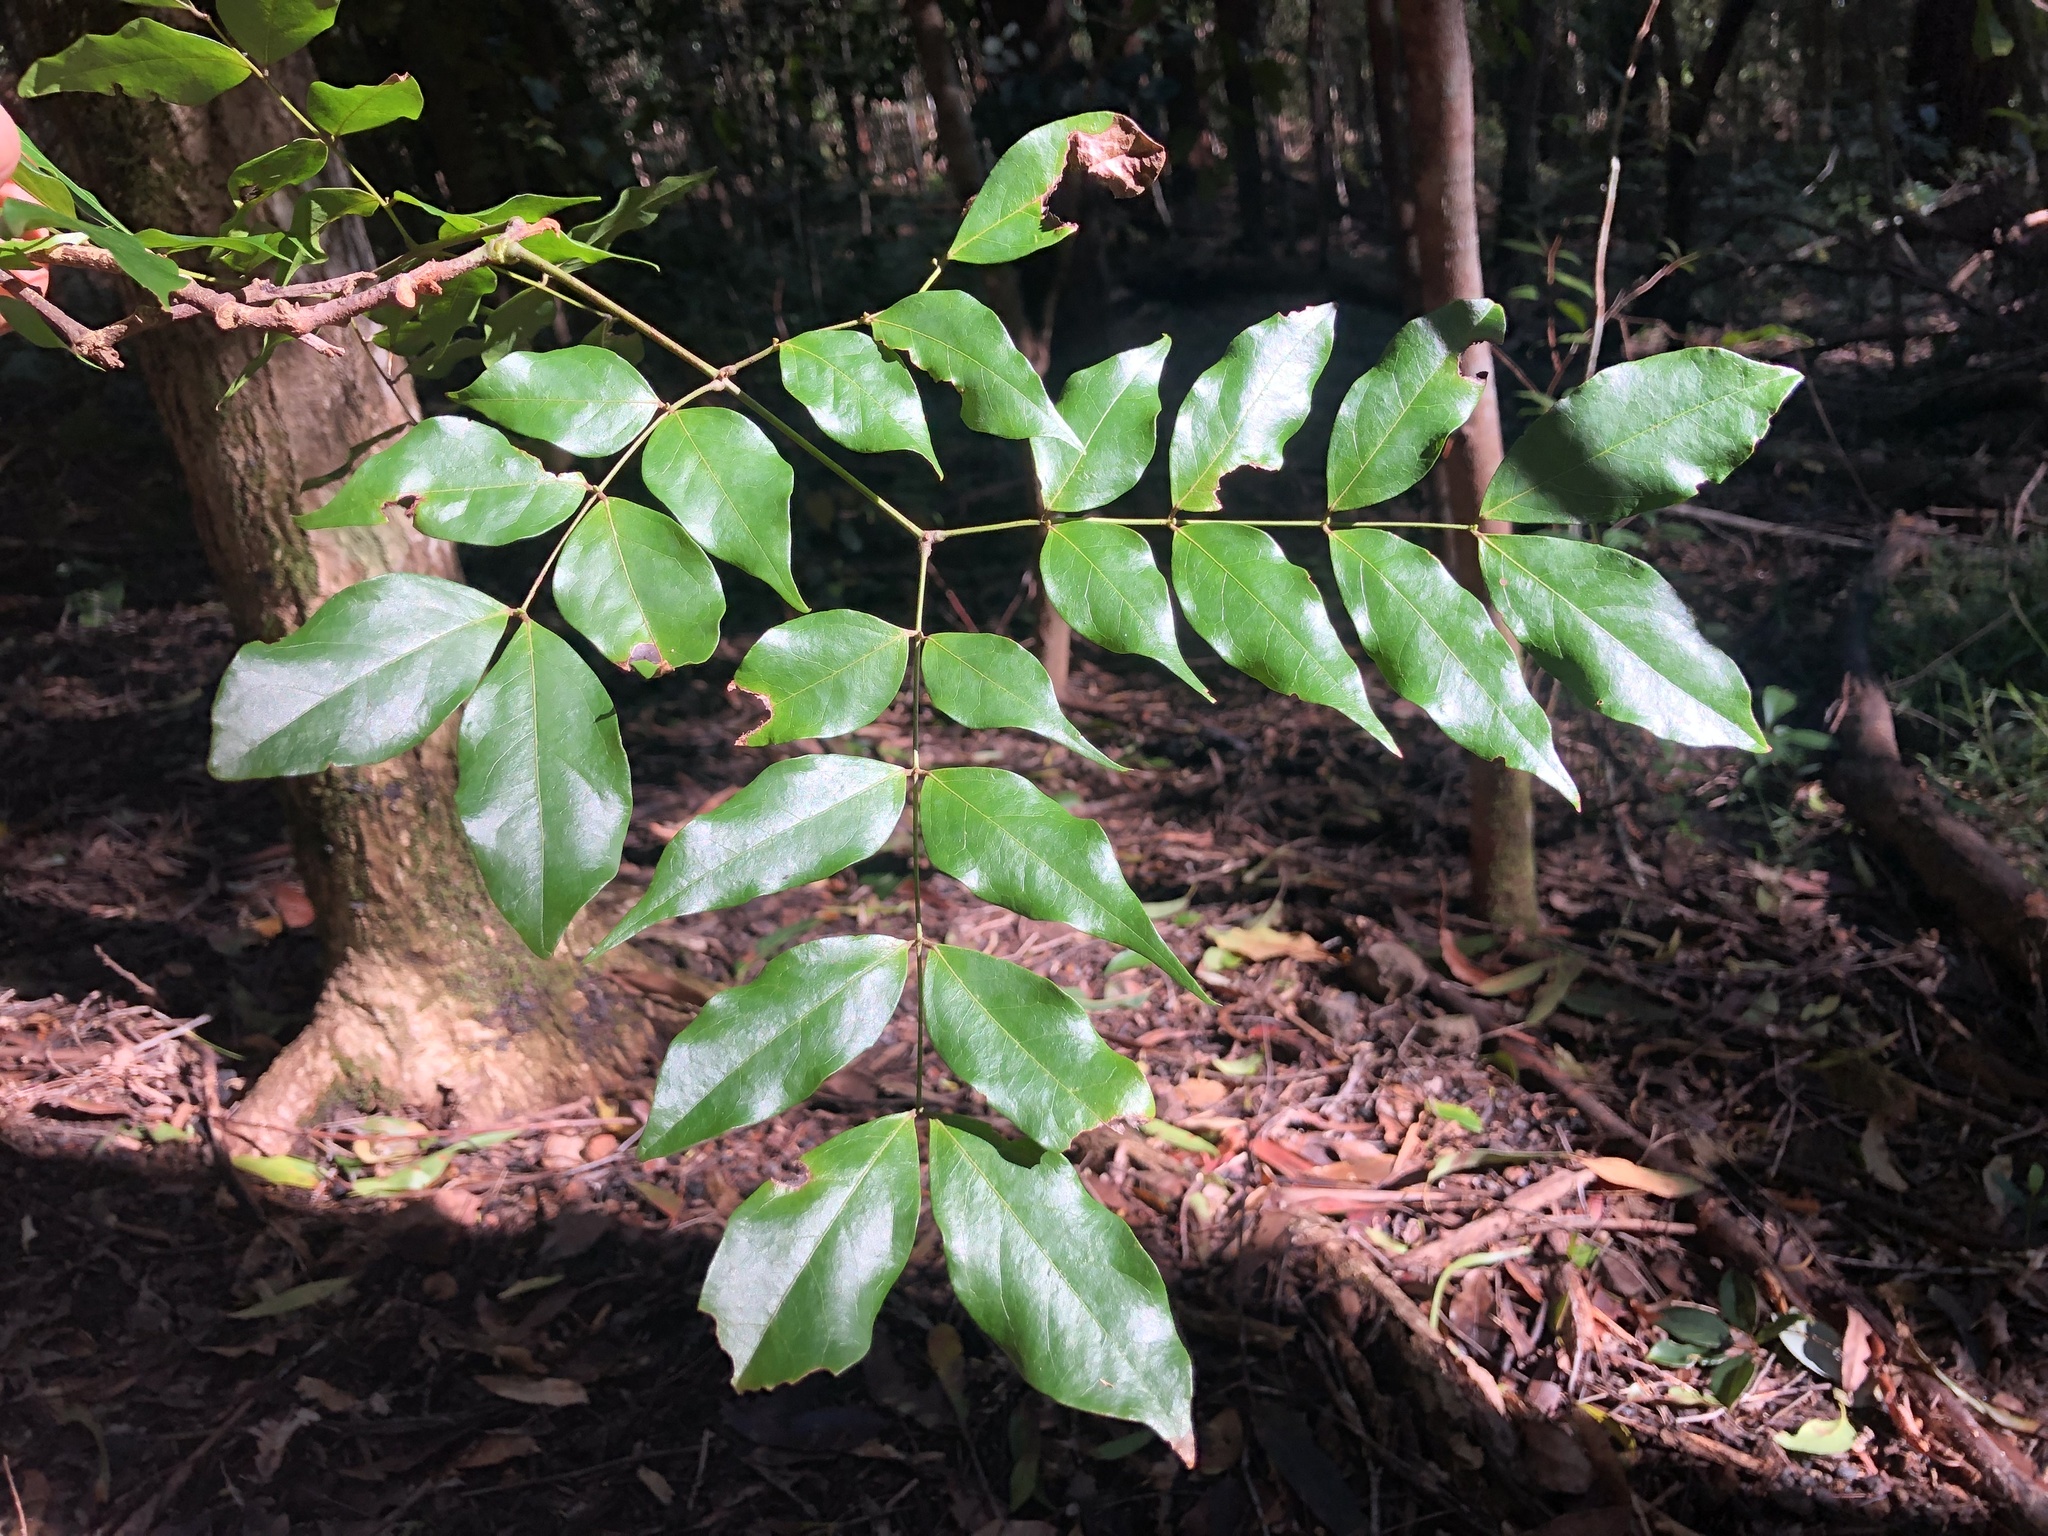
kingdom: Plantae
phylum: Tracheophyta
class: Magnoliopsida
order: Fabales
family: Fabaceae
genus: Archidendron
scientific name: Archidendron grandiflorum
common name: Tulip siris
